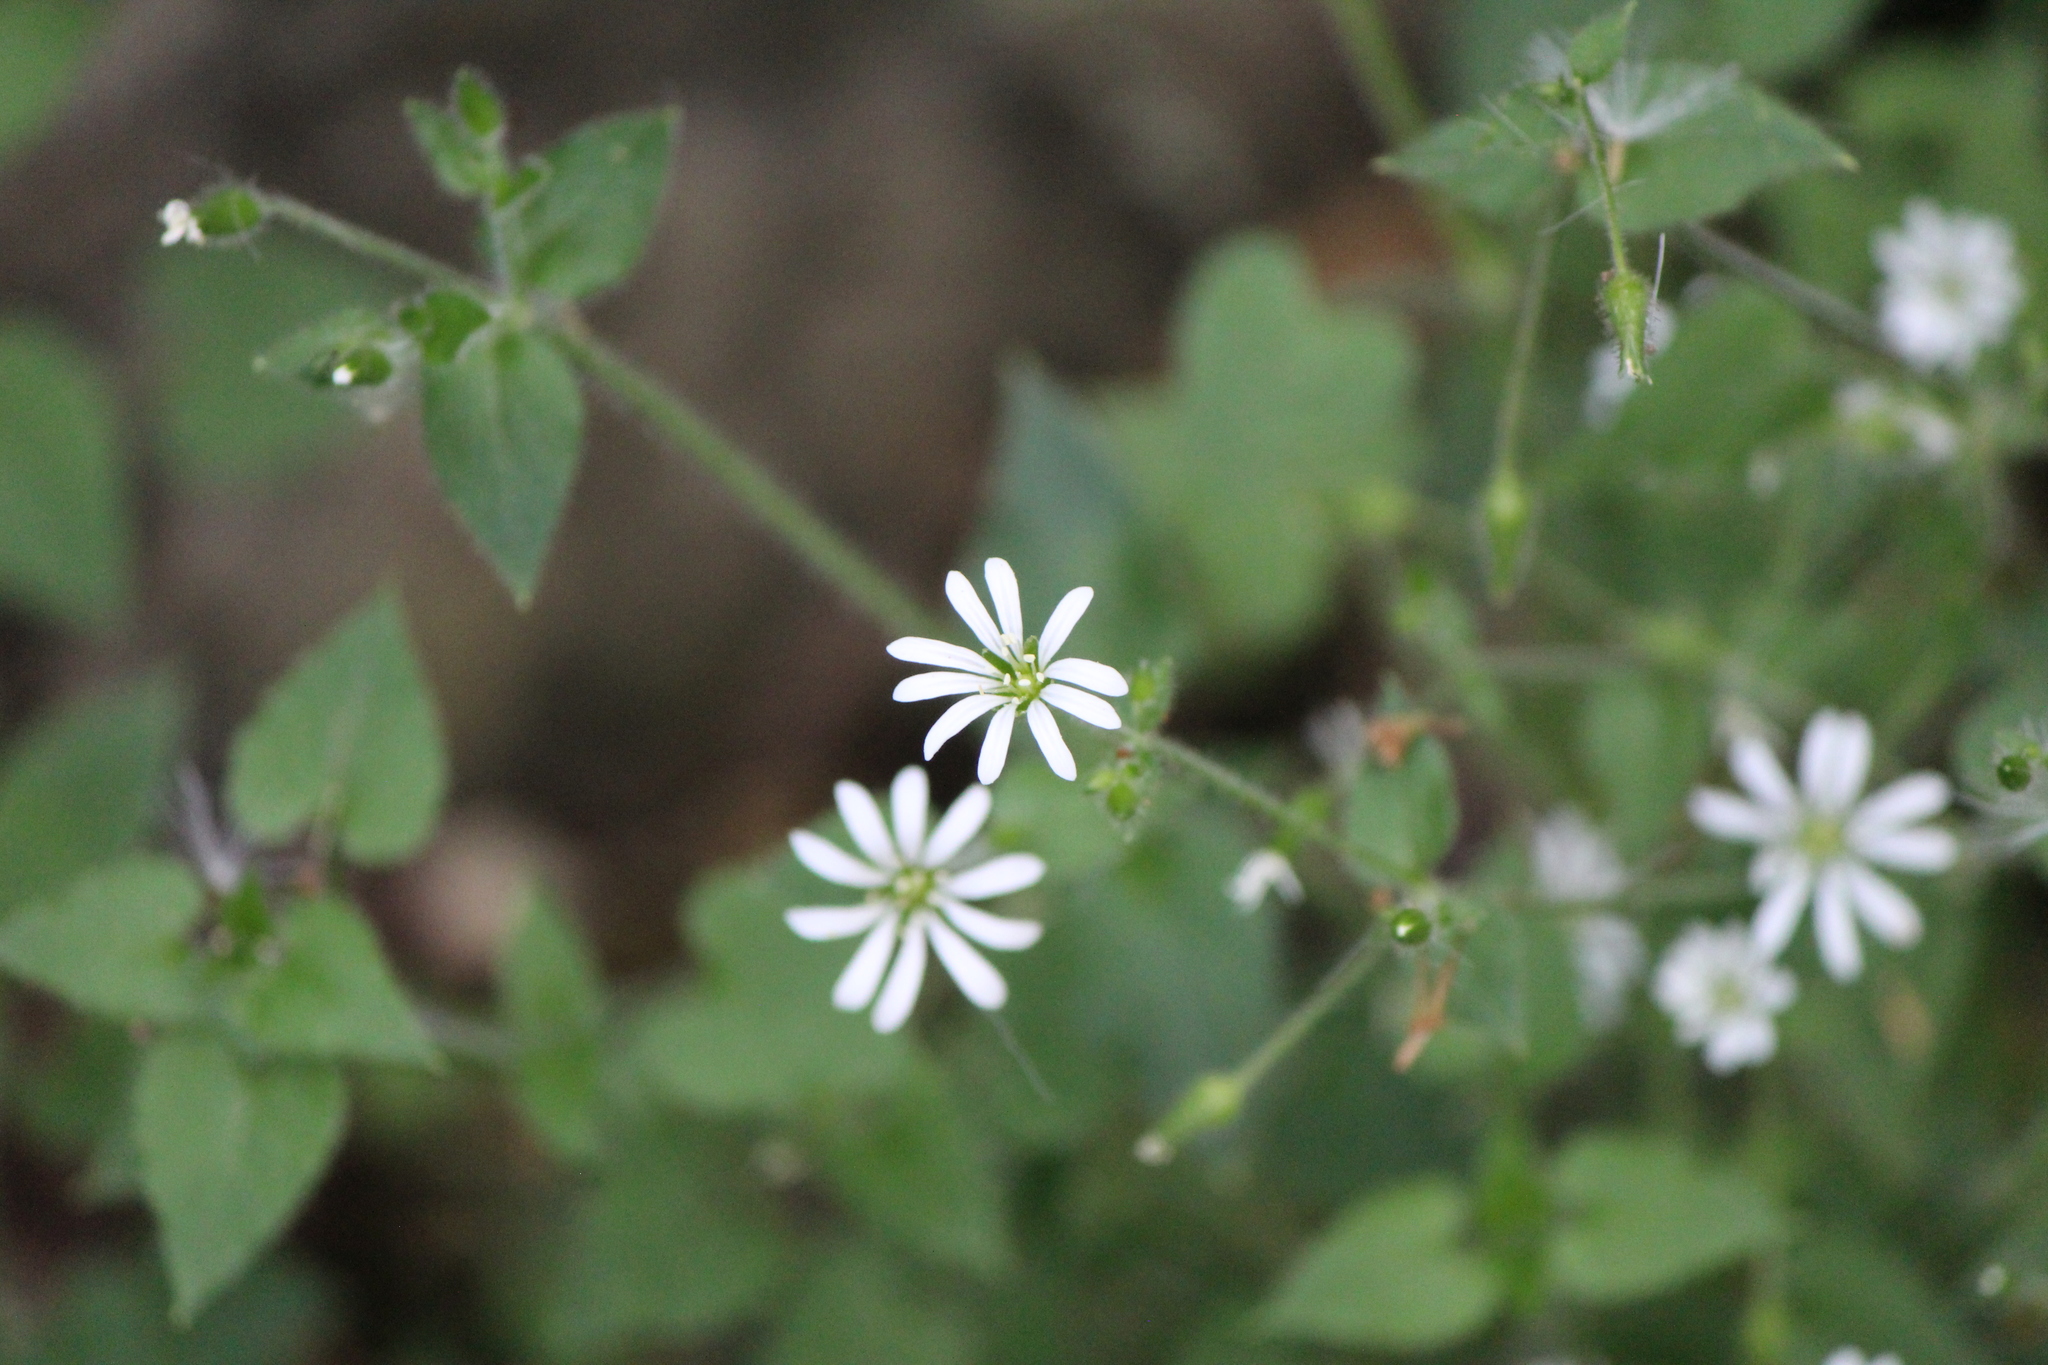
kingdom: Plantae
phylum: Tracheophyta
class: Magnoliopsida
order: Caryophyllales
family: Caryophyllaceae
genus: Stellaria
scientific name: Stellaria cuspidata
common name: Mexican chickweed
